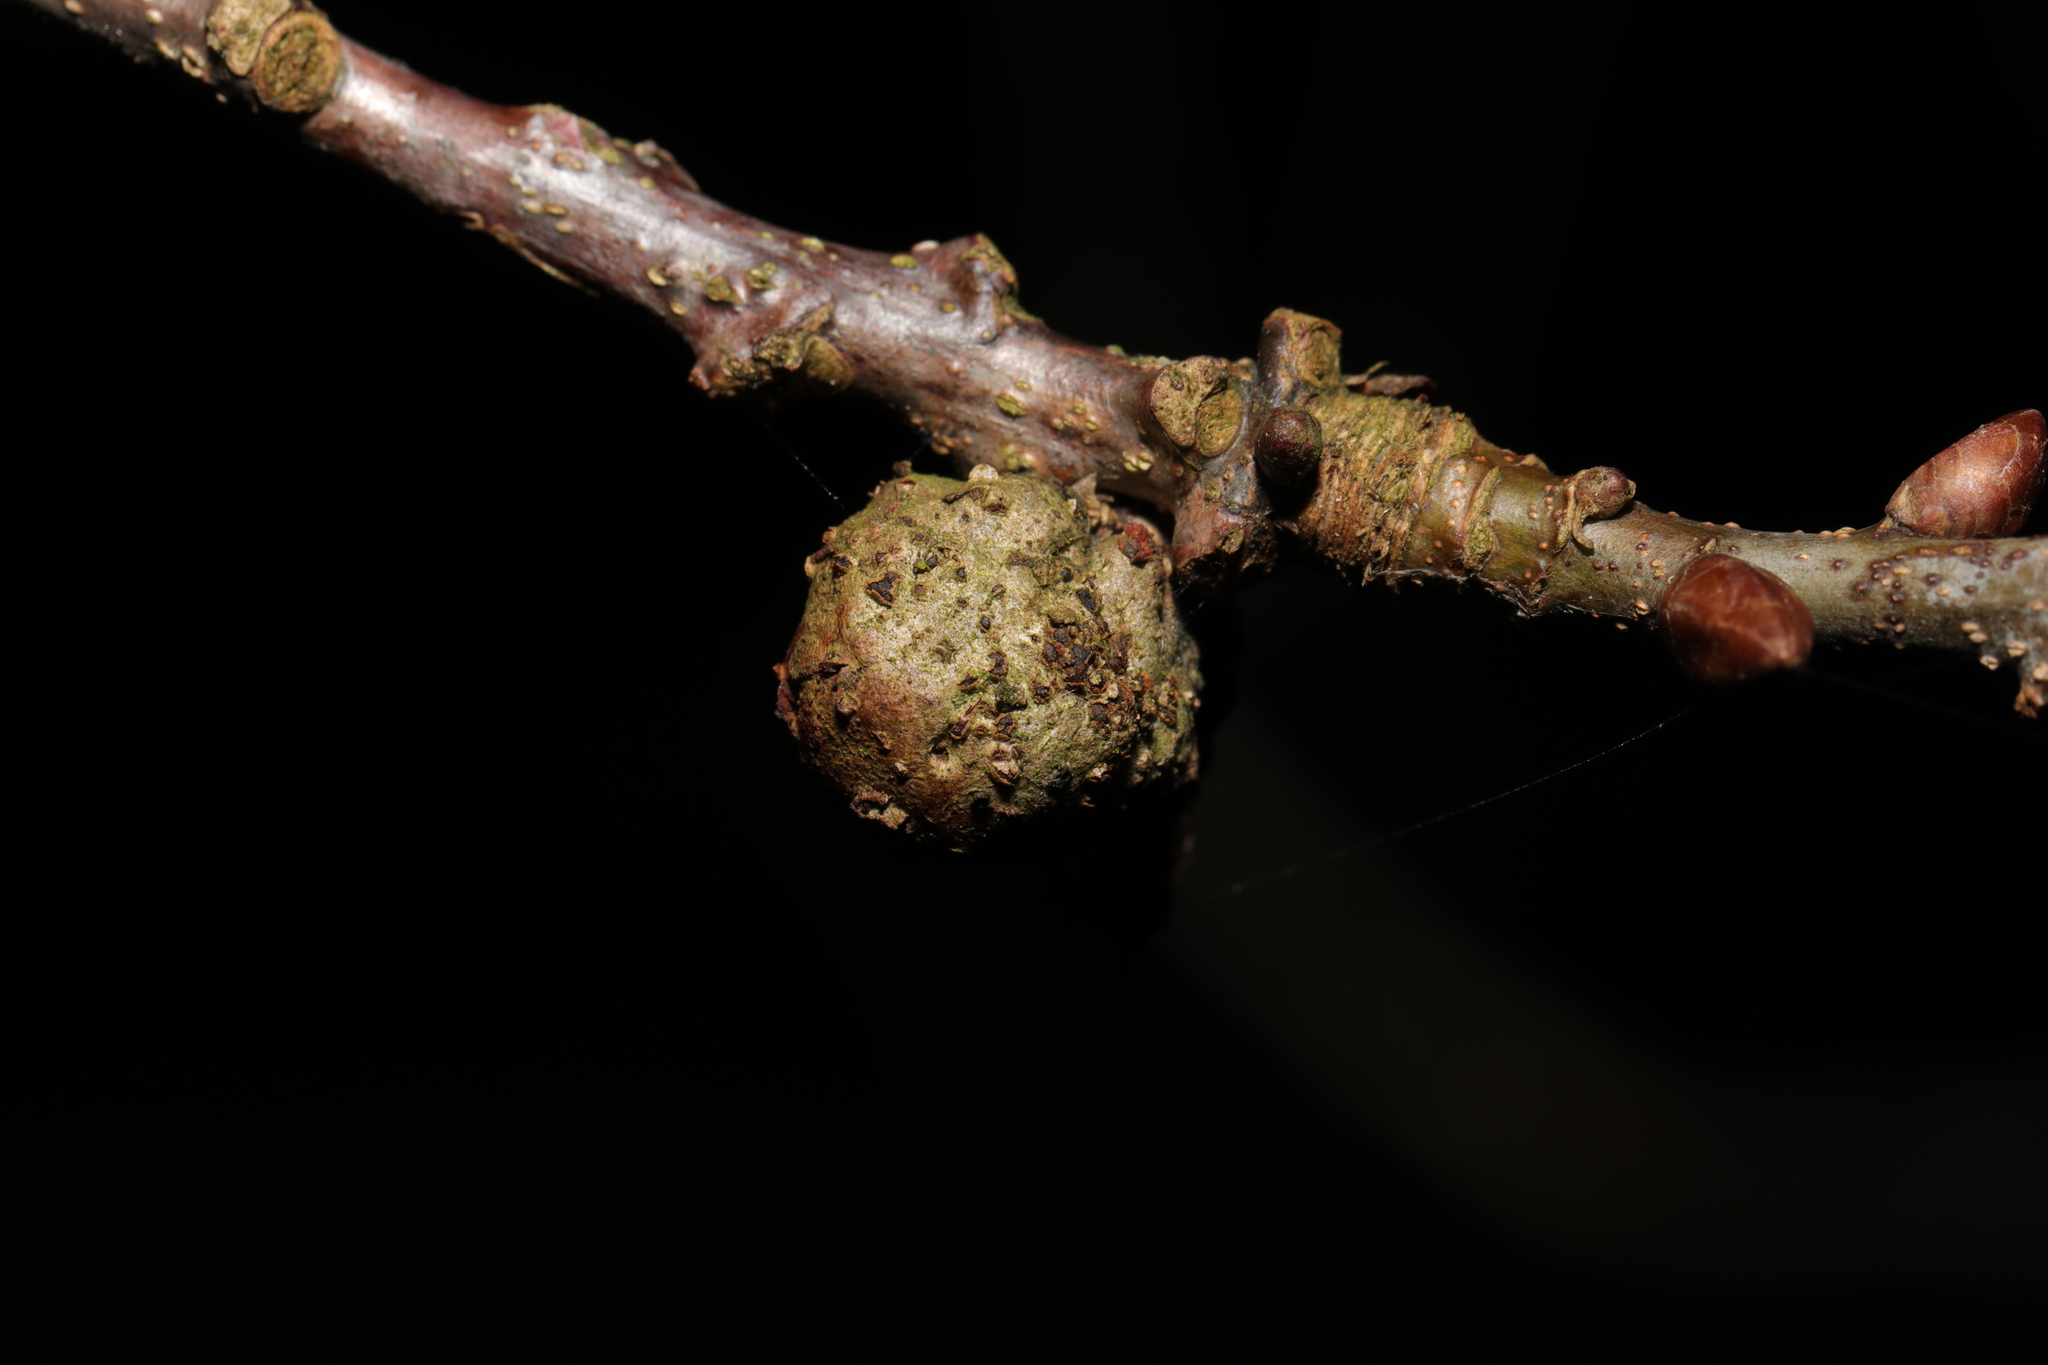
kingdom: Animalia
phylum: Arthropoda
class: Insecta
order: Hymenoptera
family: Cynipidae
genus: Andricus
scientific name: Andricus lignicolus
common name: Cola-nut gall
